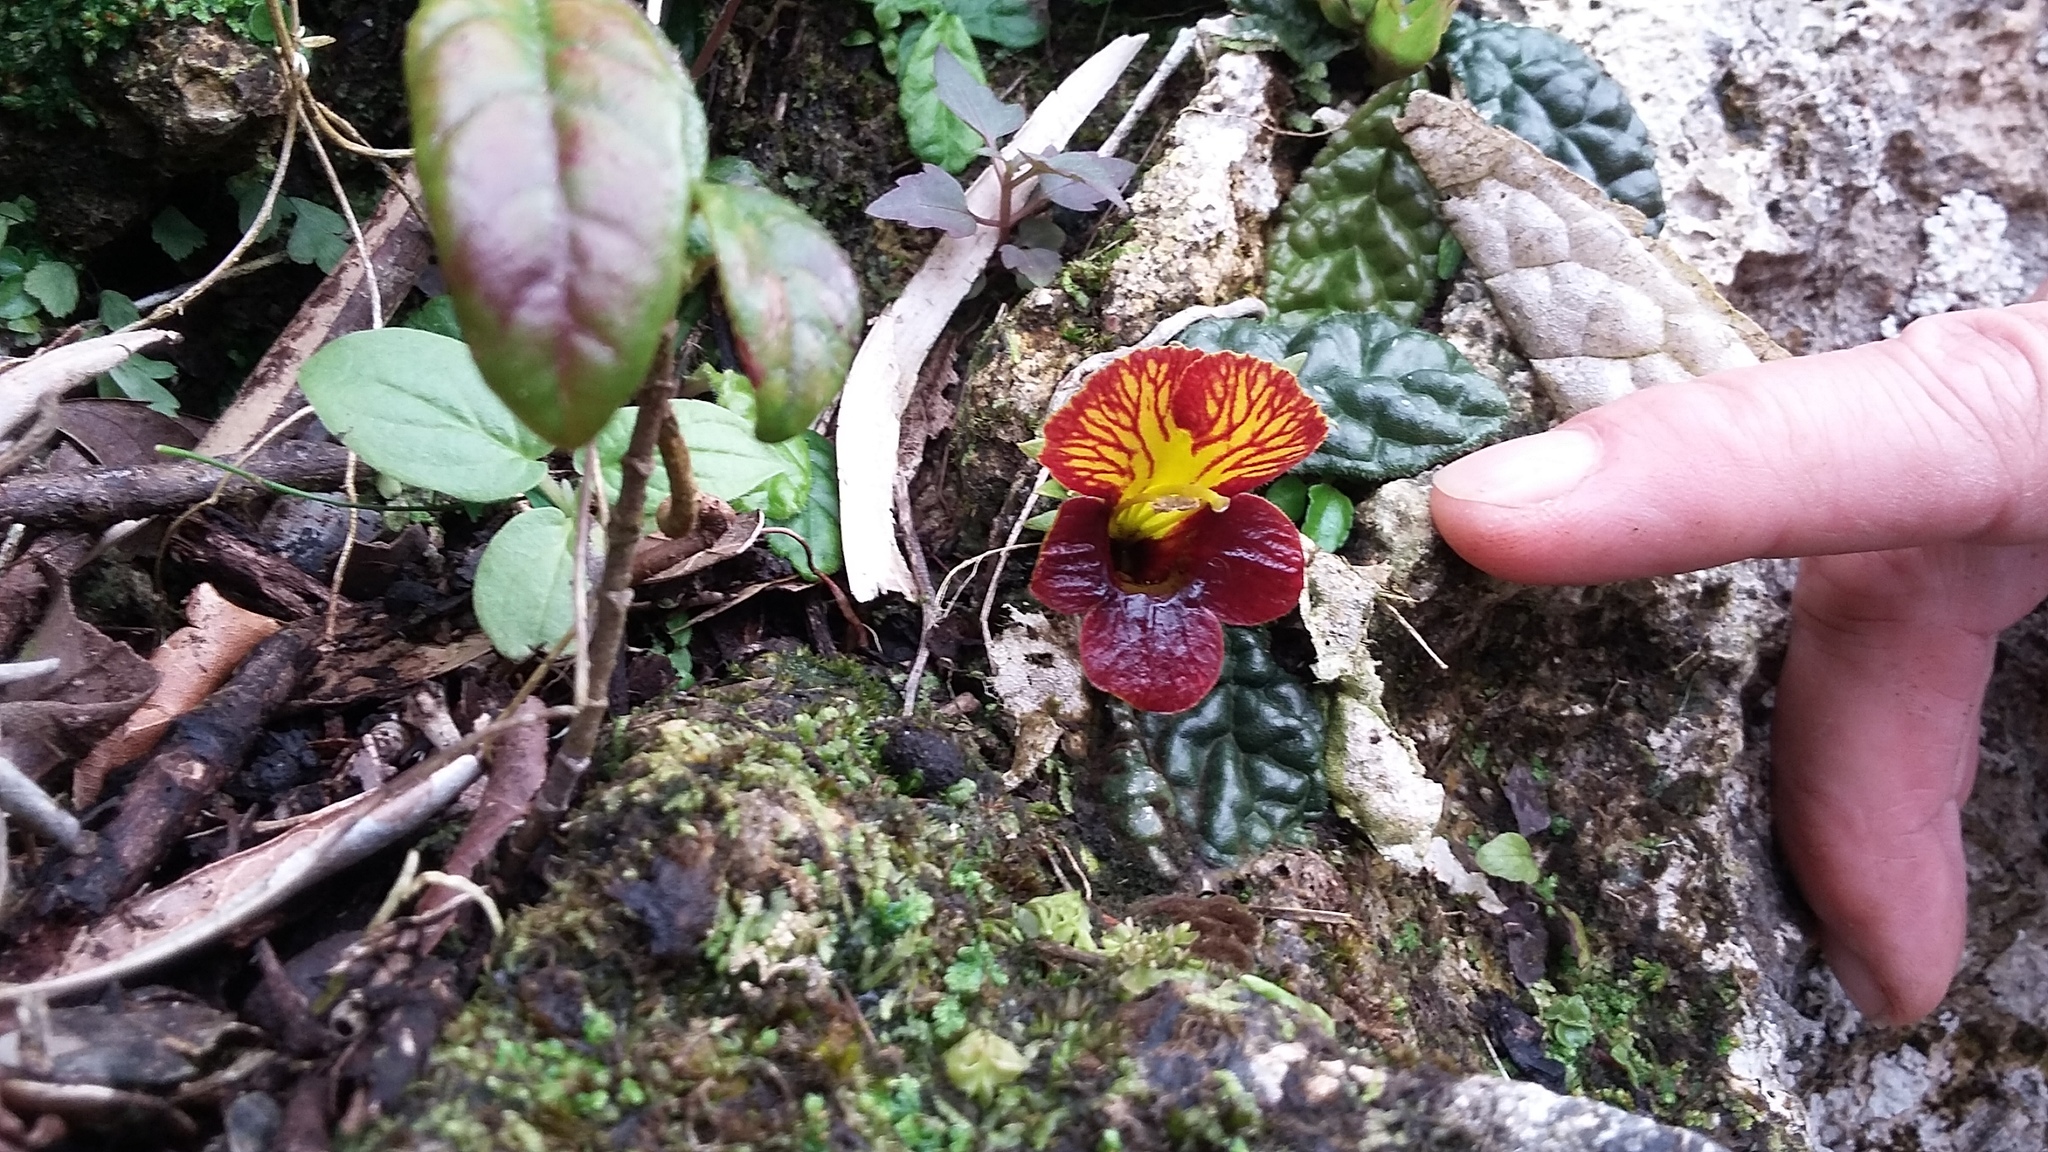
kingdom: Plantae
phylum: Tracheophyta
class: Magnoliopsida
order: Lamiales
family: Gesneriaceae
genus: Gesneria
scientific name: Gesneria depressa
